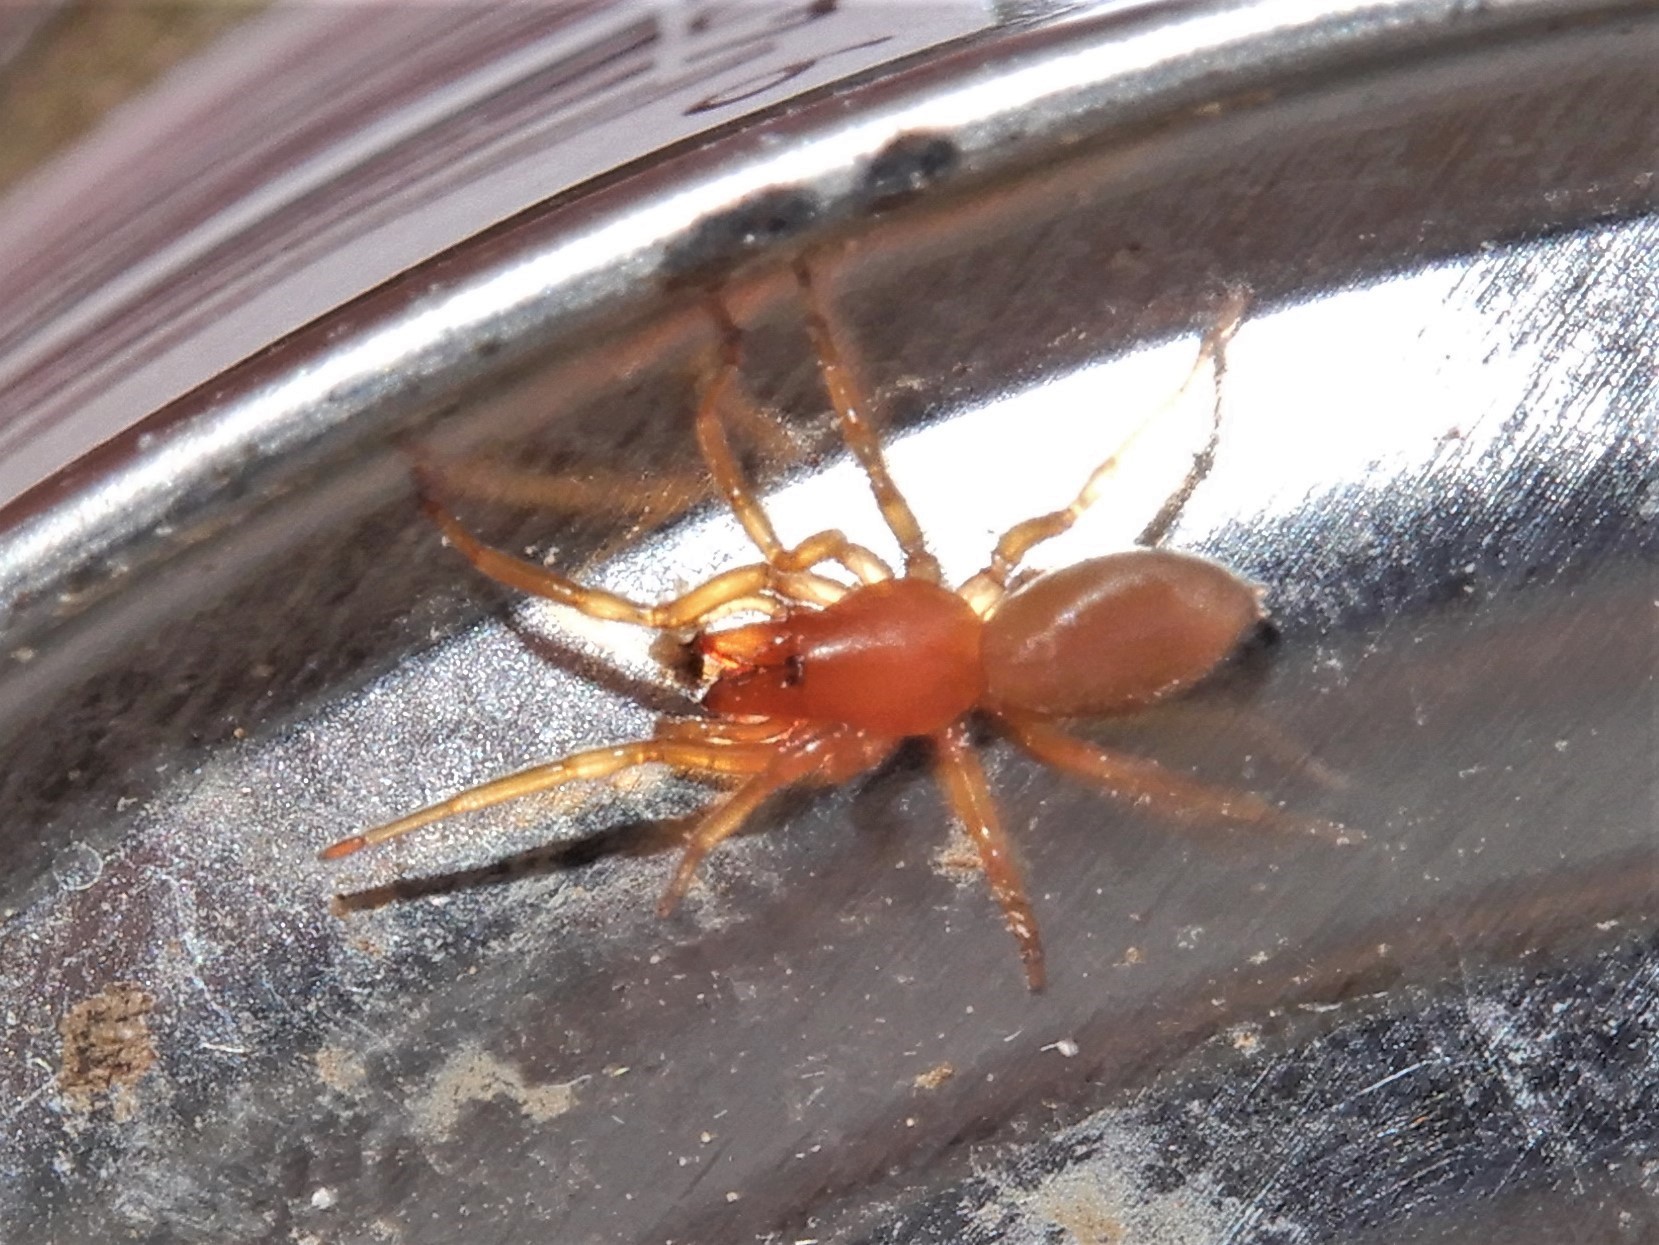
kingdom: Animalia
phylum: Arthropoda
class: Arachnida
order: Araneae
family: Dysderidae
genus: Dysdera
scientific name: Dysdera crocata
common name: Woodlouse spider
